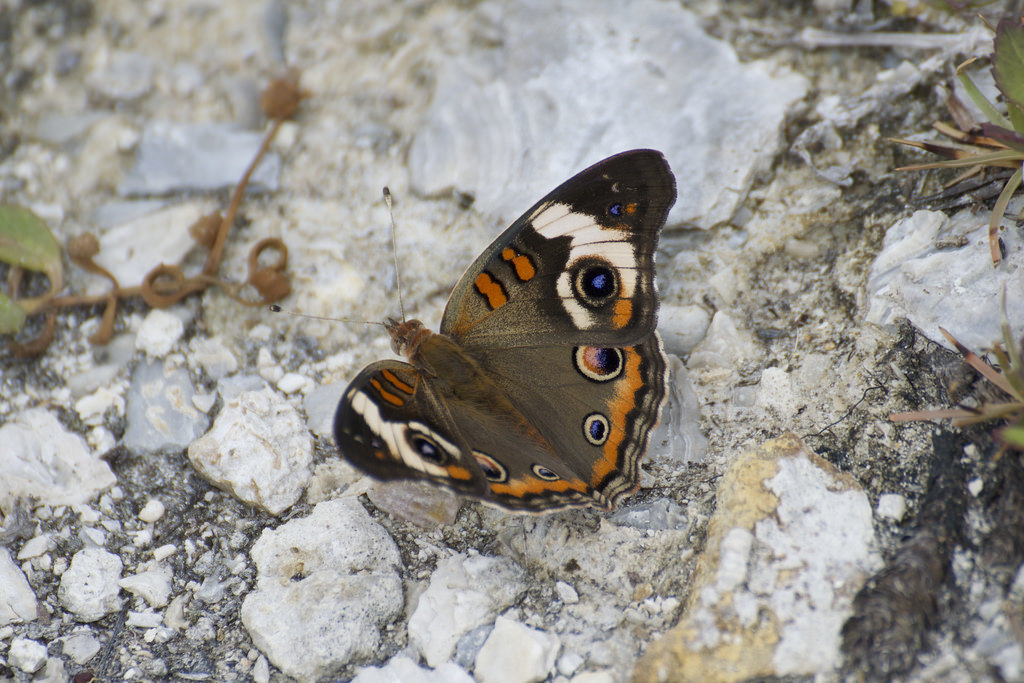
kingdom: Animalia
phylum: Arthropoda
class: Insecta
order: Lepidoptera
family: Nymphalidae
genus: Junonia
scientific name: Junonia coenia
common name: Common buckeye
